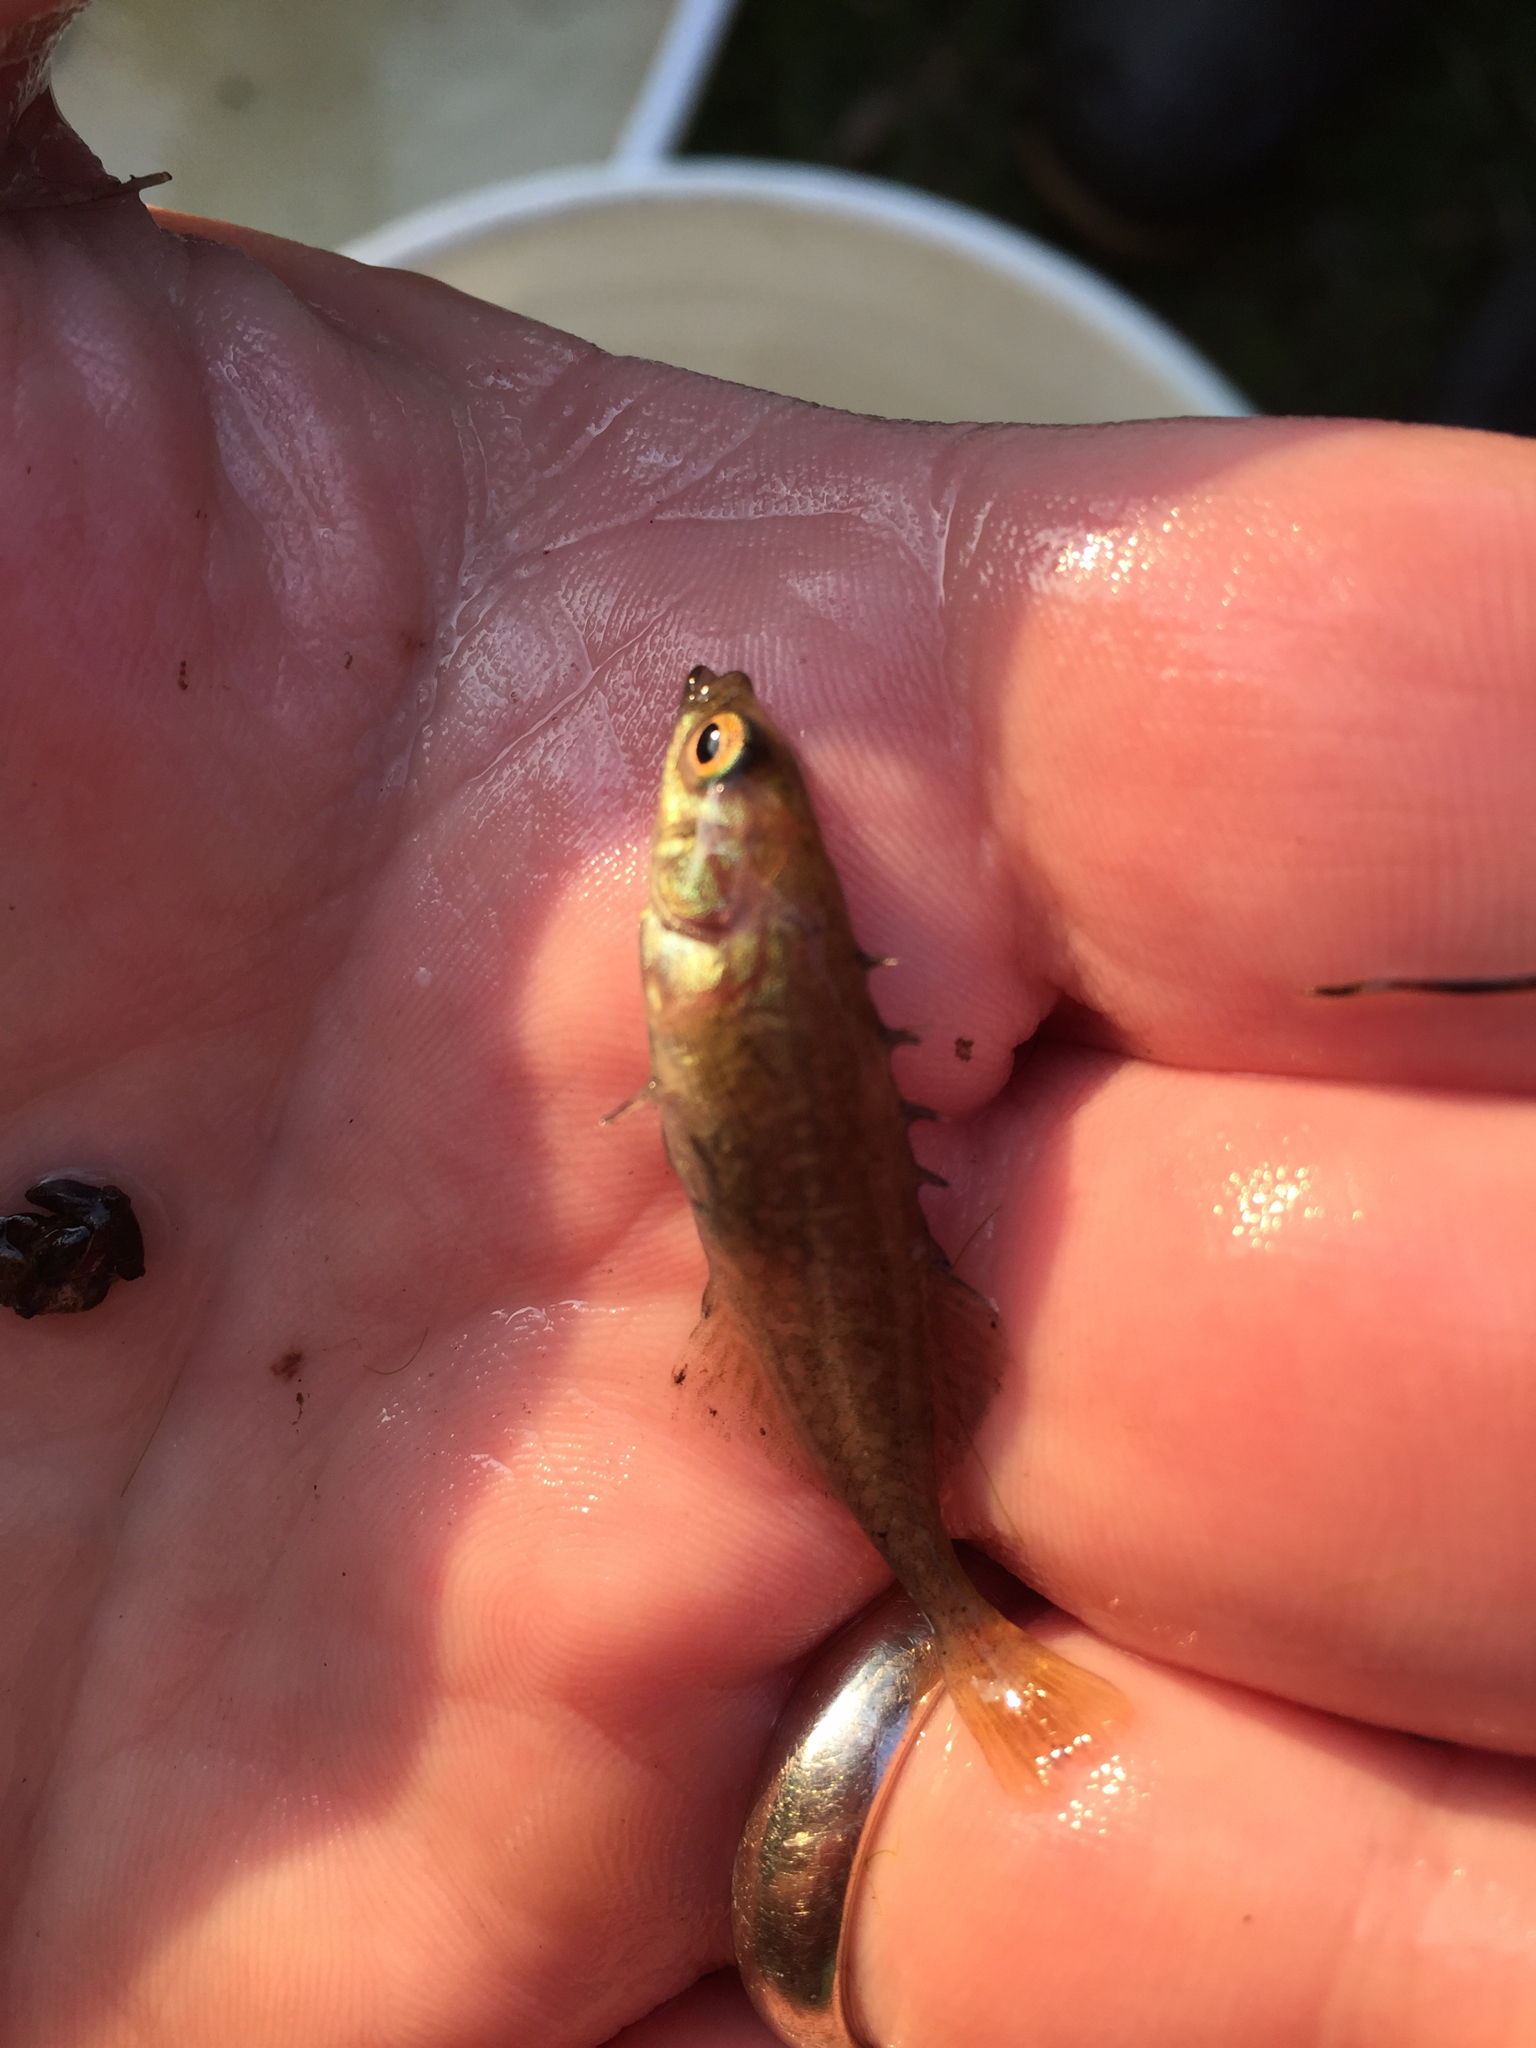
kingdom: Animalia
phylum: Chordata
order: Gasterosteiformes
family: Gasterosteidae
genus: Culaea
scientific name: Culaea inconstans
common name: Brook stickleback
